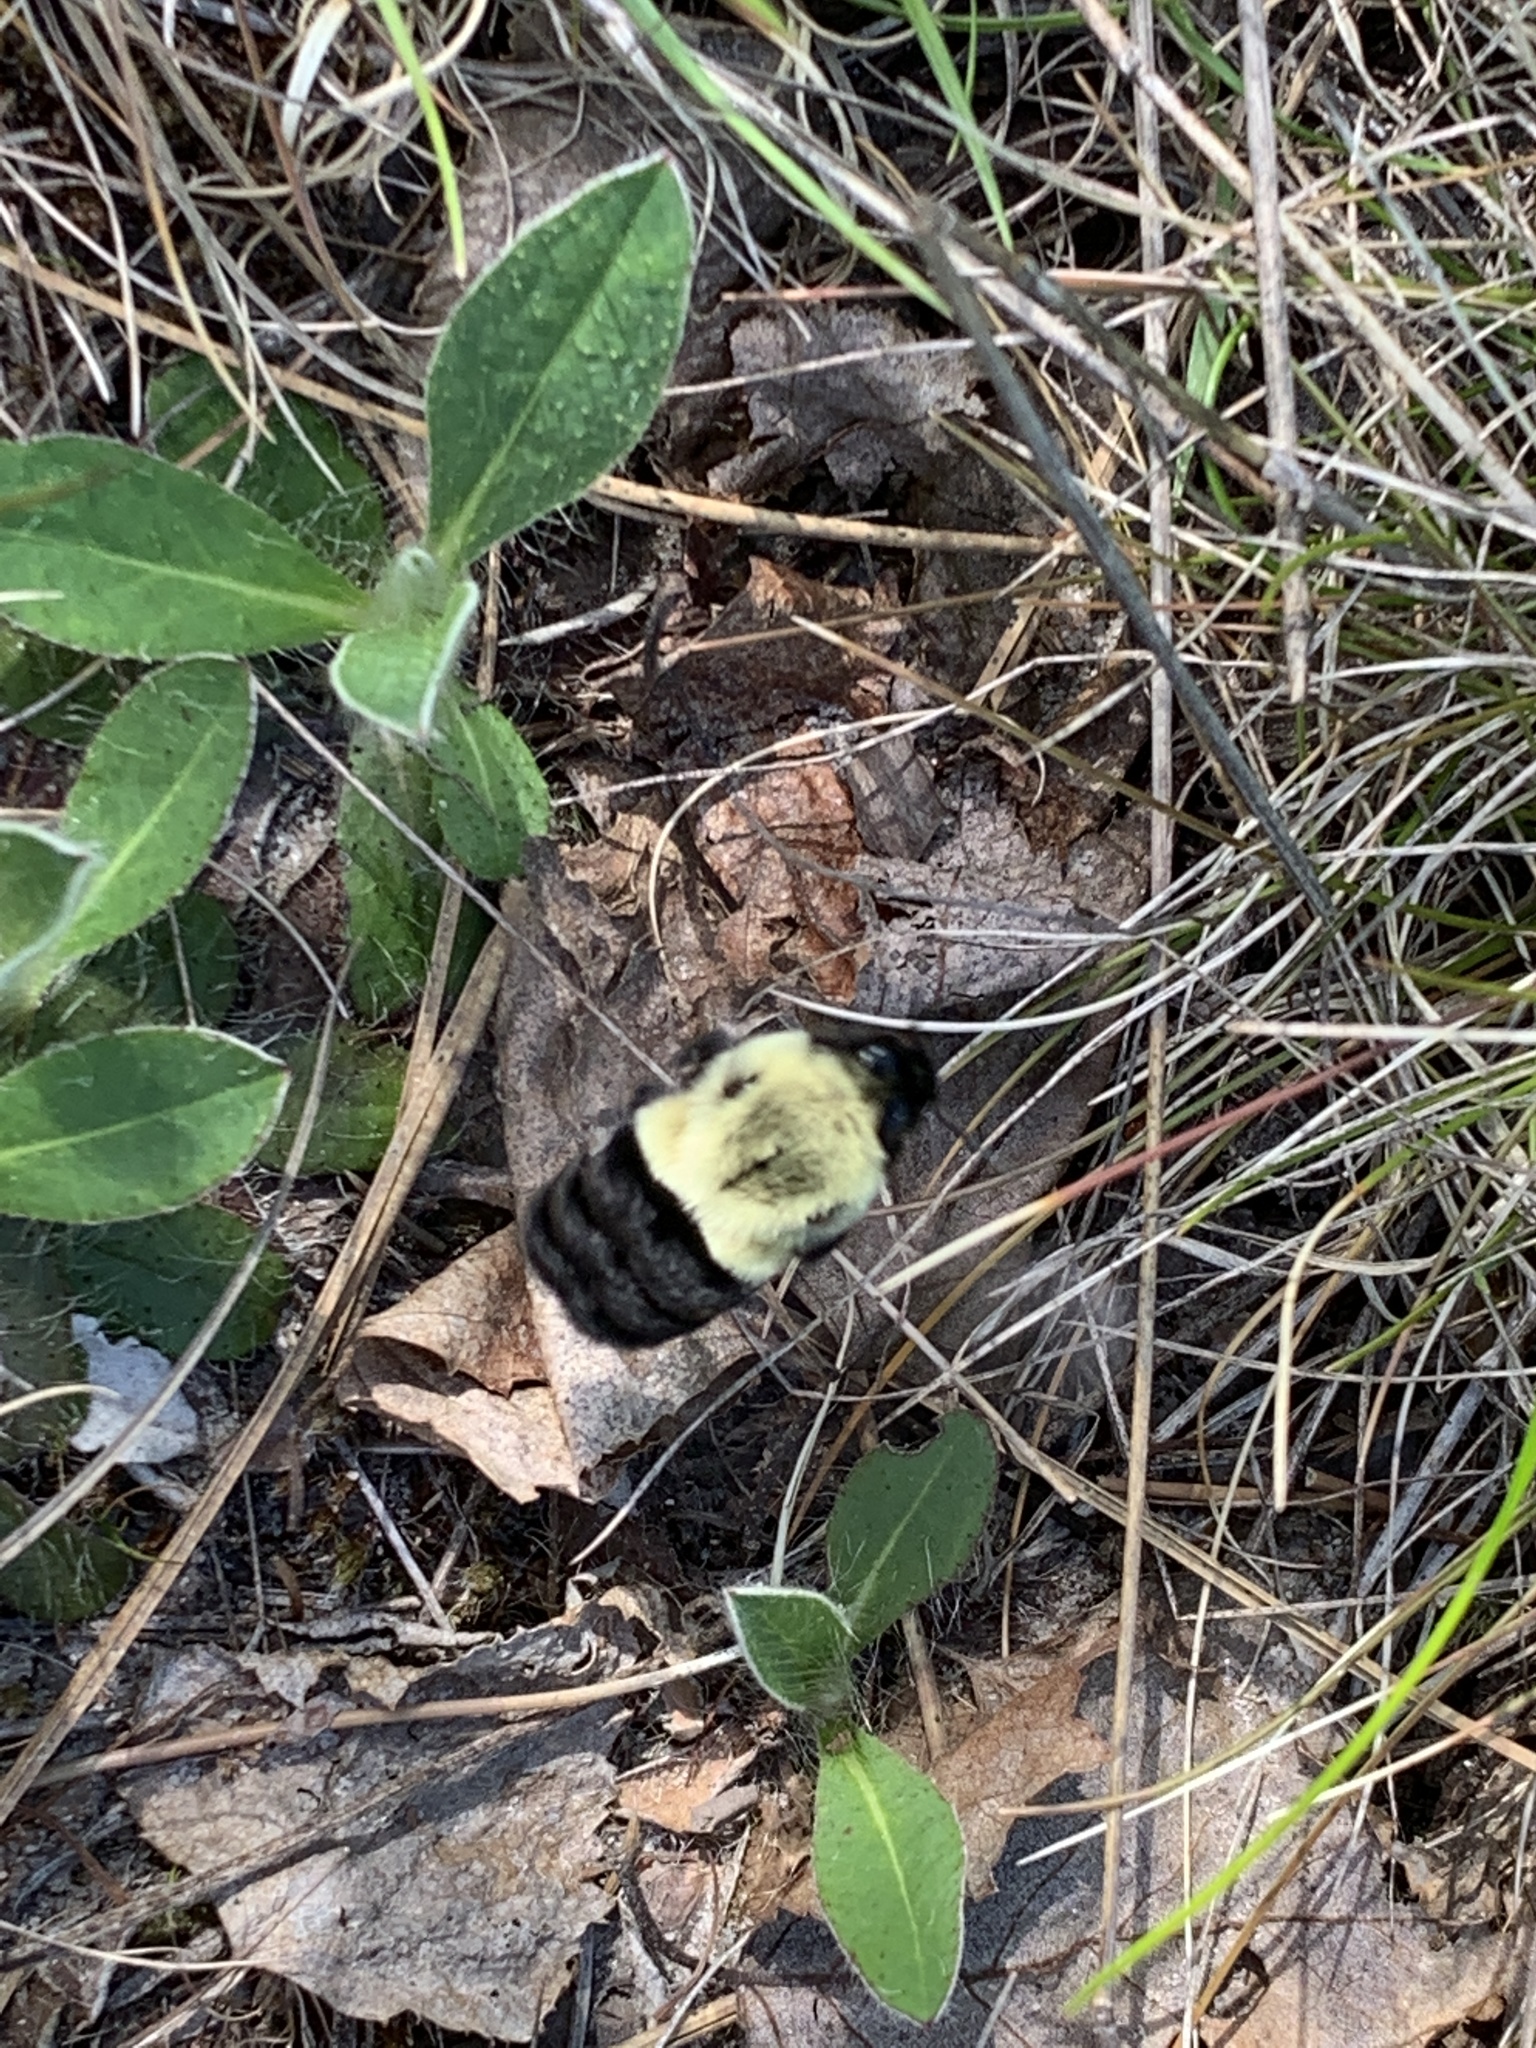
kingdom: Animalia
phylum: Arthropoda
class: Insecta
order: Hymenoptera
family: Apidae
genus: Bombus
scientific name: Bombus impatiens
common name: Common eastern bumble bee
